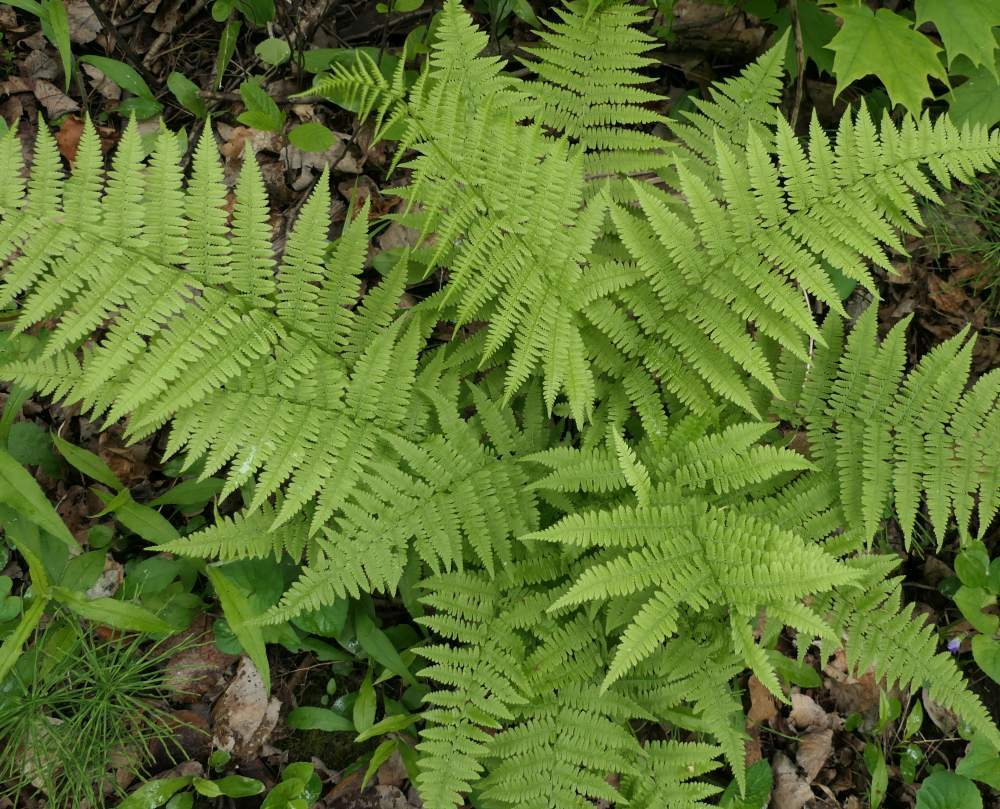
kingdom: Plantae
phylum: Tracheophyta
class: Polypodiopsida
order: Polypodiales
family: Athyriaceae
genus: Athyrium
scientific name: Athyrium angustum
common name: Northern lady fern
